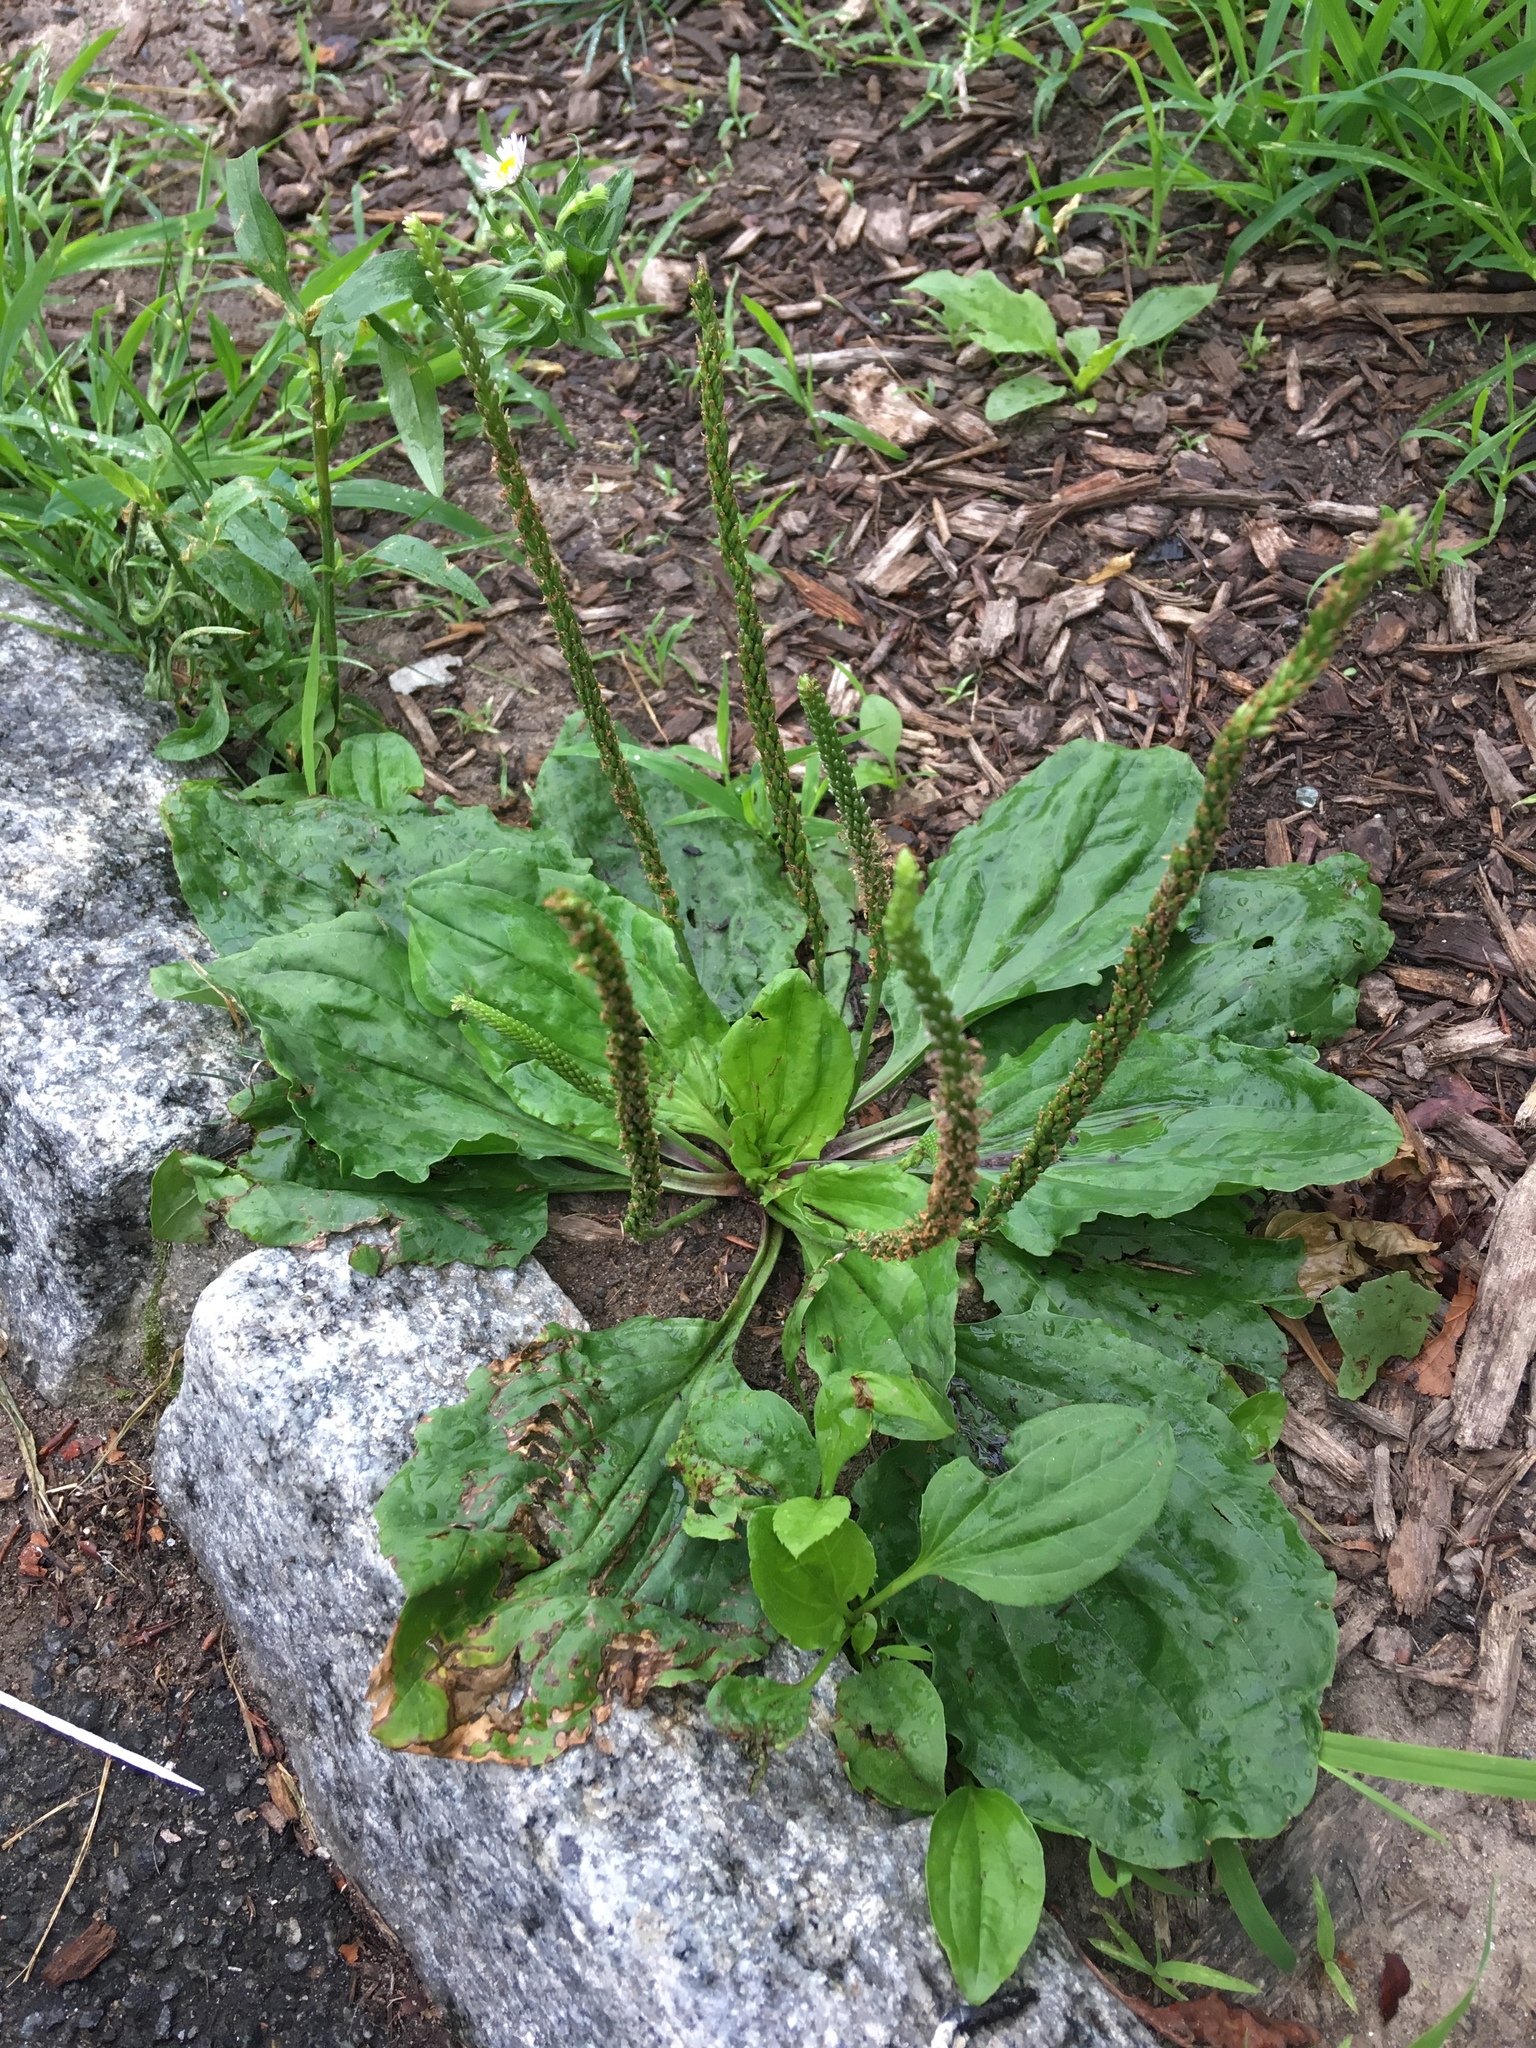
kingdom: Plantae
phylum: Tracheophyta
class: Magnoliopsida
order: Lamiales
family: Plantaginaceae
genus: Plantago
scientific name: Plantago rugelii
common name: American plantain
